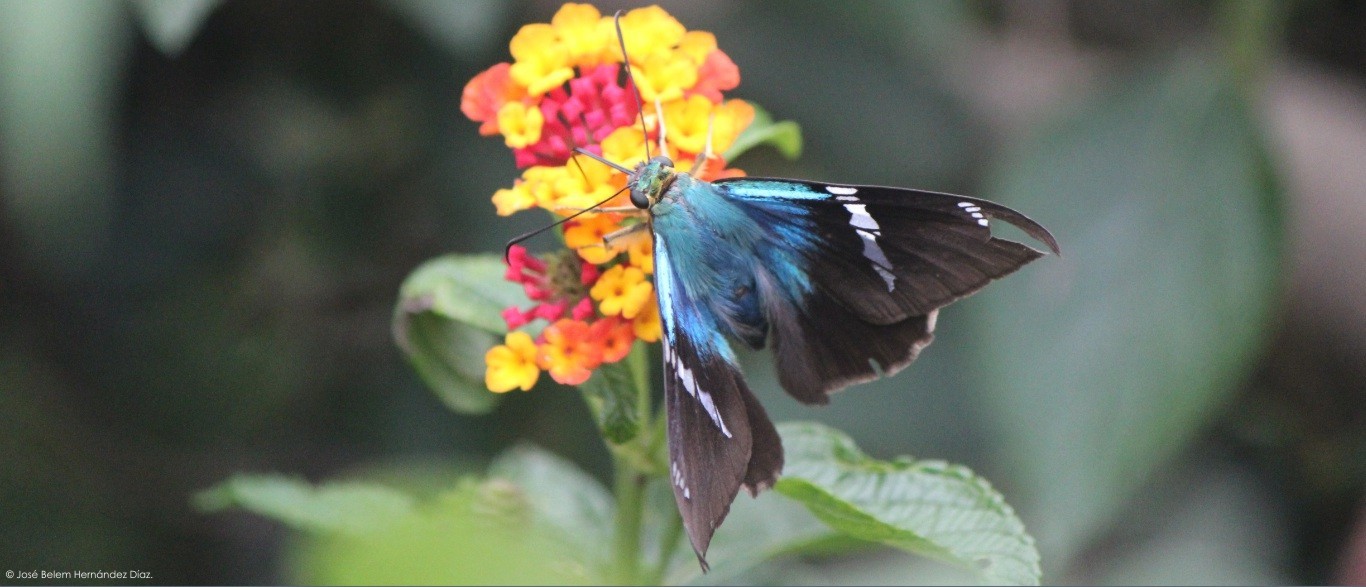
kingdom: Animalia
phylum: Arthropoda
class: Insecta
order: Lepidoptera
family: Hesperiidae
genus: Astraptes
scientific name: Astraptes fulgerator
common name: Two-barred flasher
